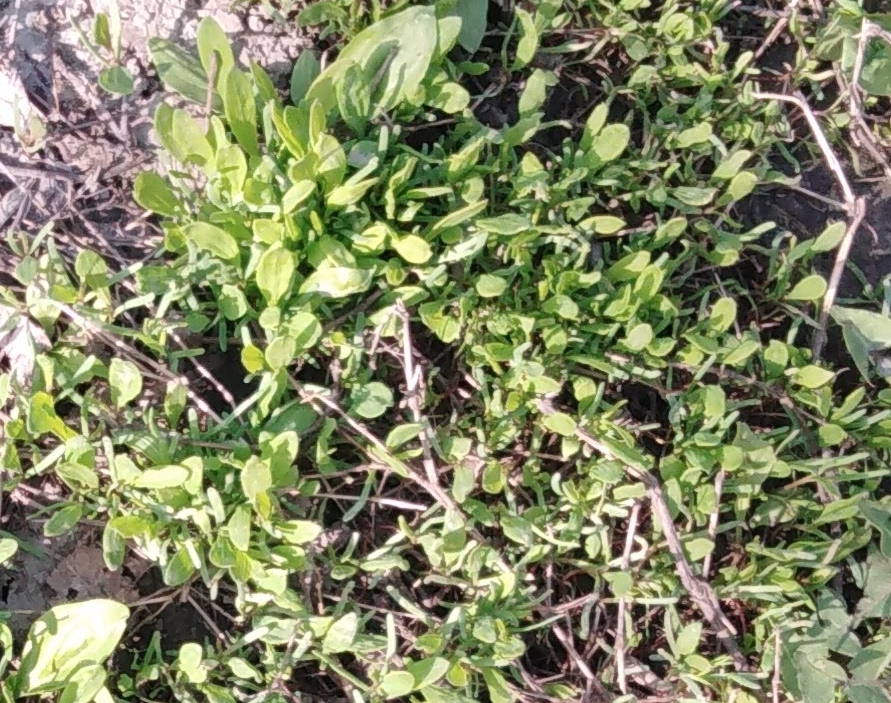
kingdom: Plantae
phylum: Tracheophyta
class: Magnoliopsida
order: Caryophyllales
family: Polygonaceae
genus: Polygonum
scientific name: Polygonum
